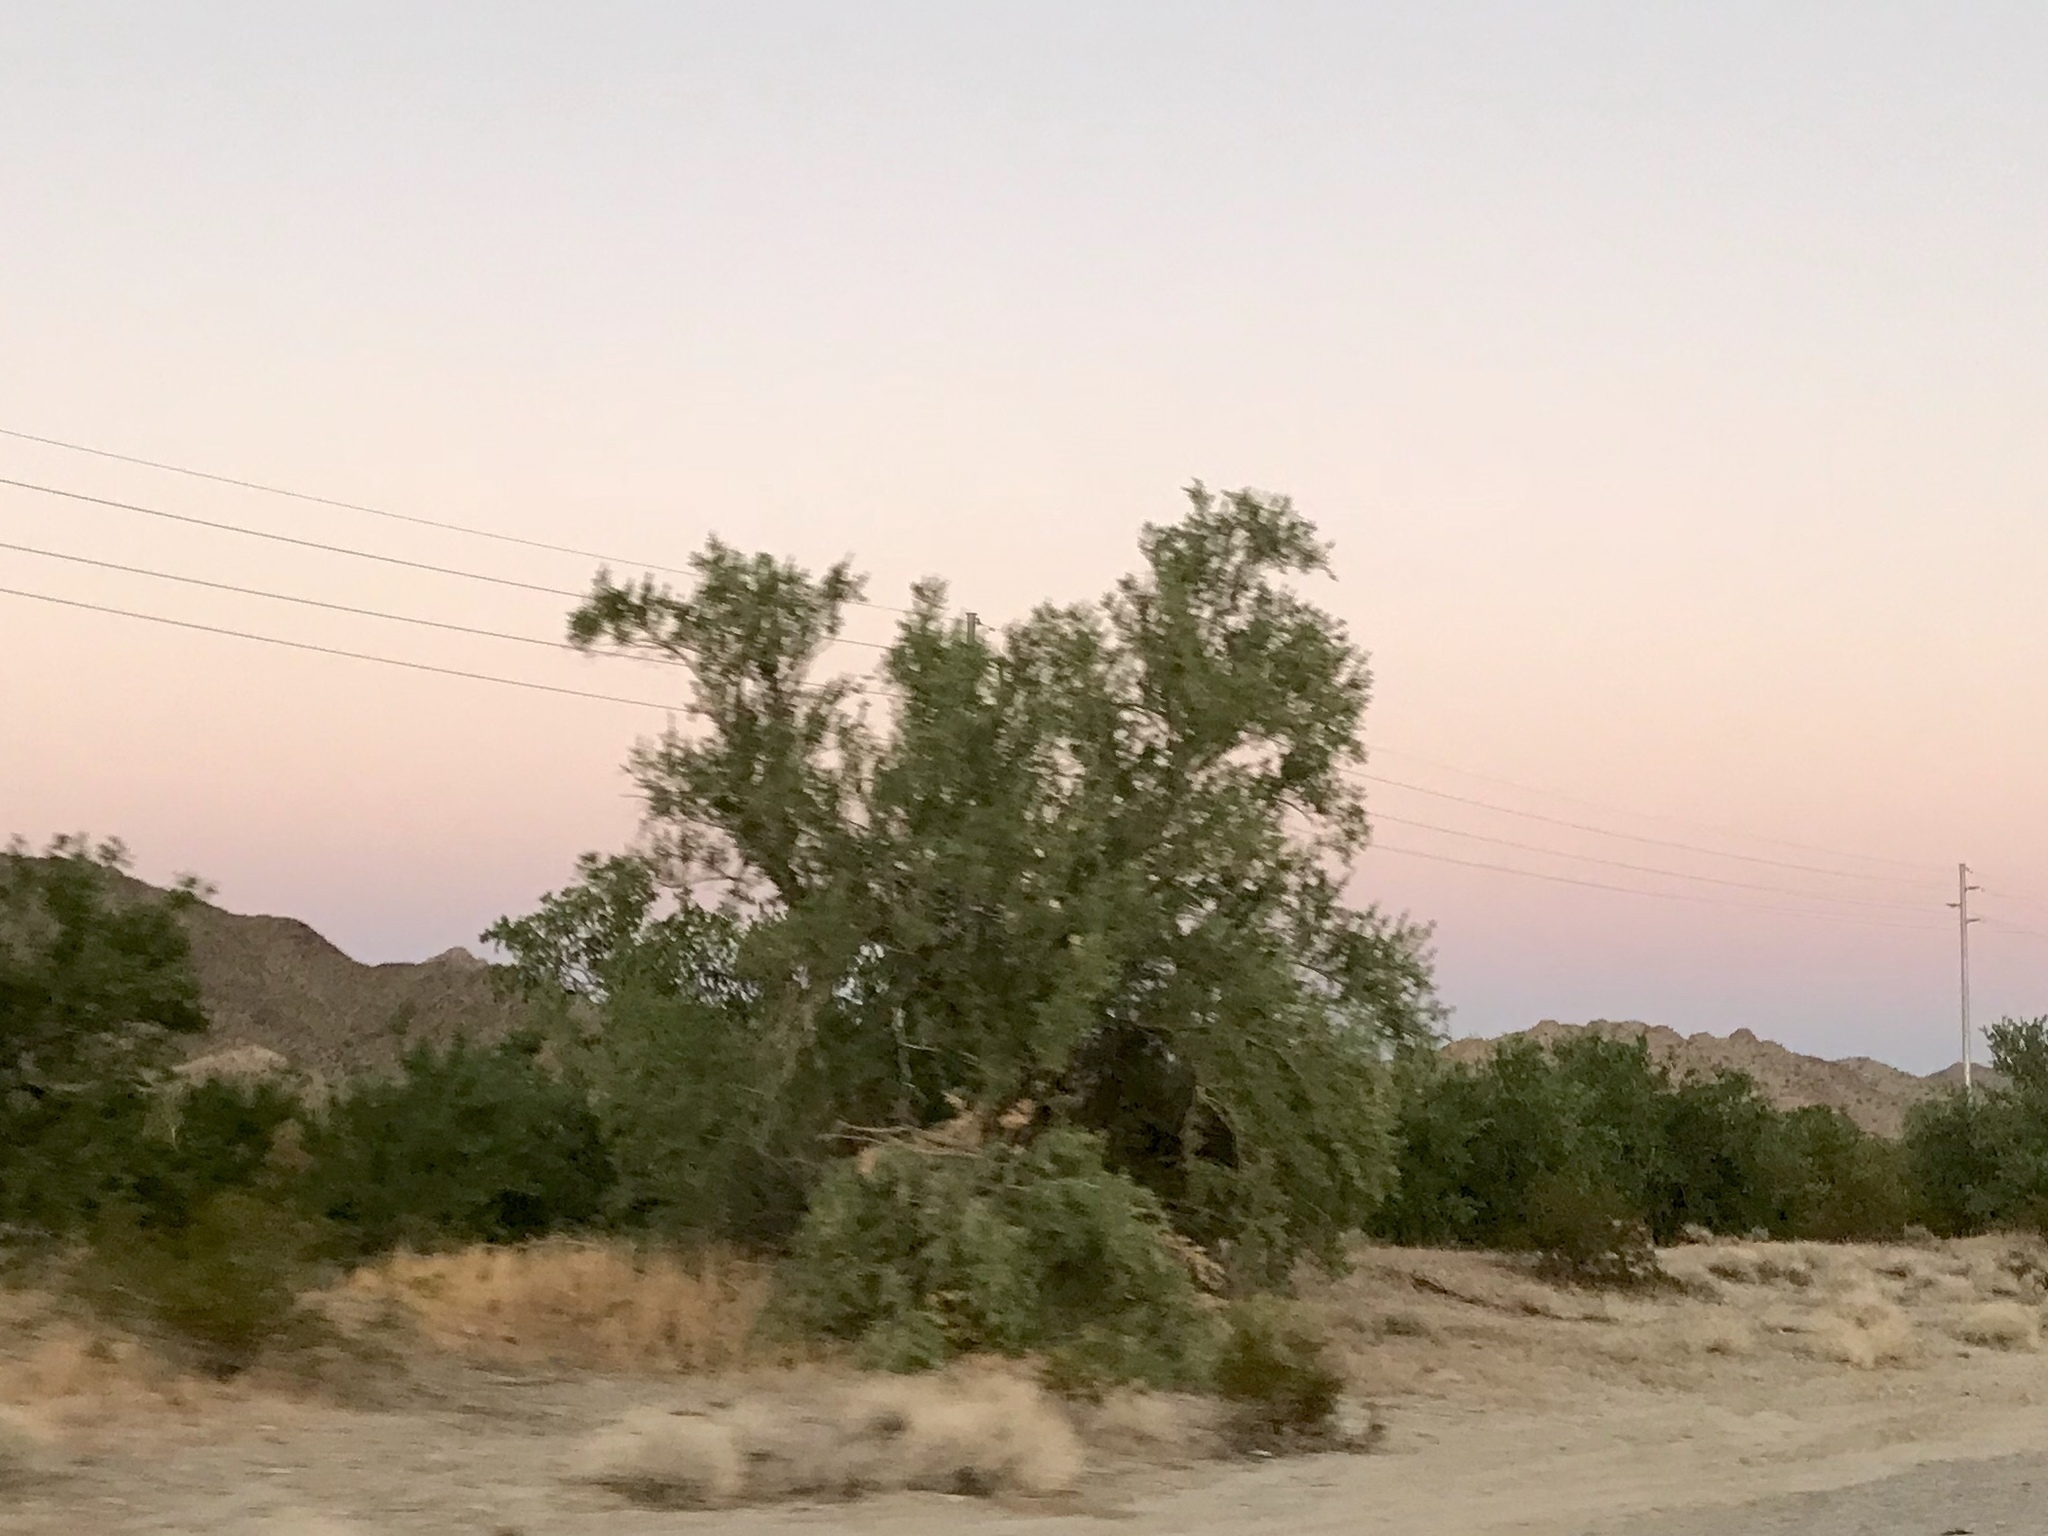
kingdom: Plantae
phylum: Tracheophyta
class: Magnoliopsida
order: Fabales
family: Fabaceae
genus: Olneya
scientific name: Olneya tesota
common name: Desert ironwood
